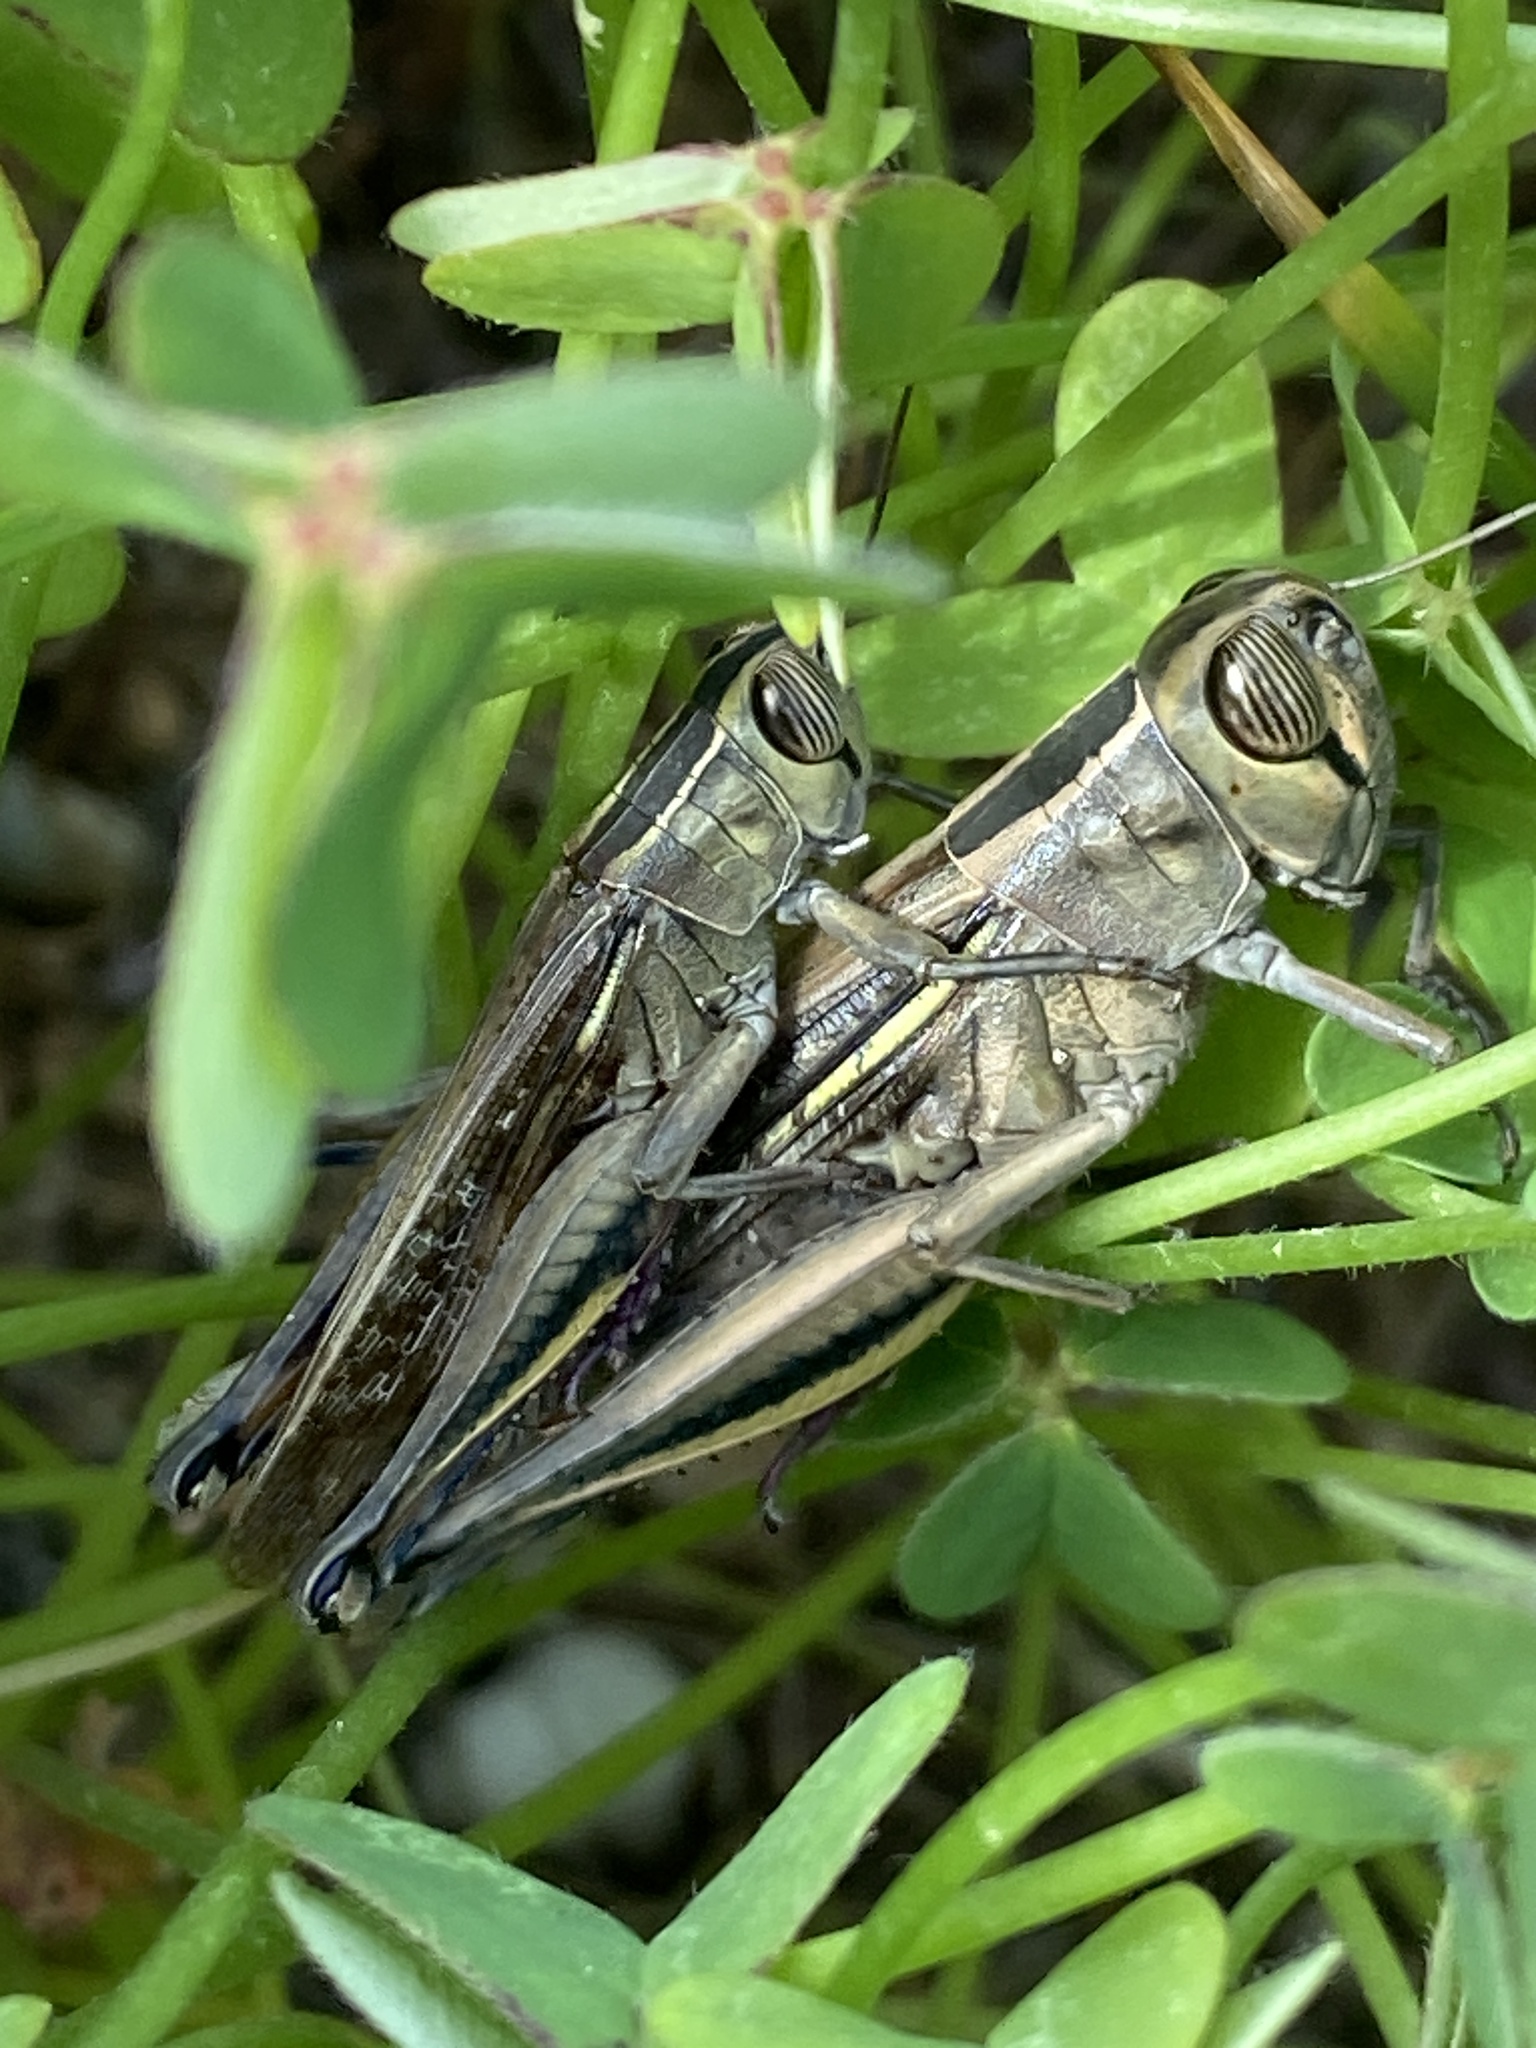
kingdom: Animalia
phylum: Arthropoda
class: Insecta
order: Orthoptera
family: Acrididae
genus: Eyprepocnemis
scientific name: Eyprepocnemis plorans
